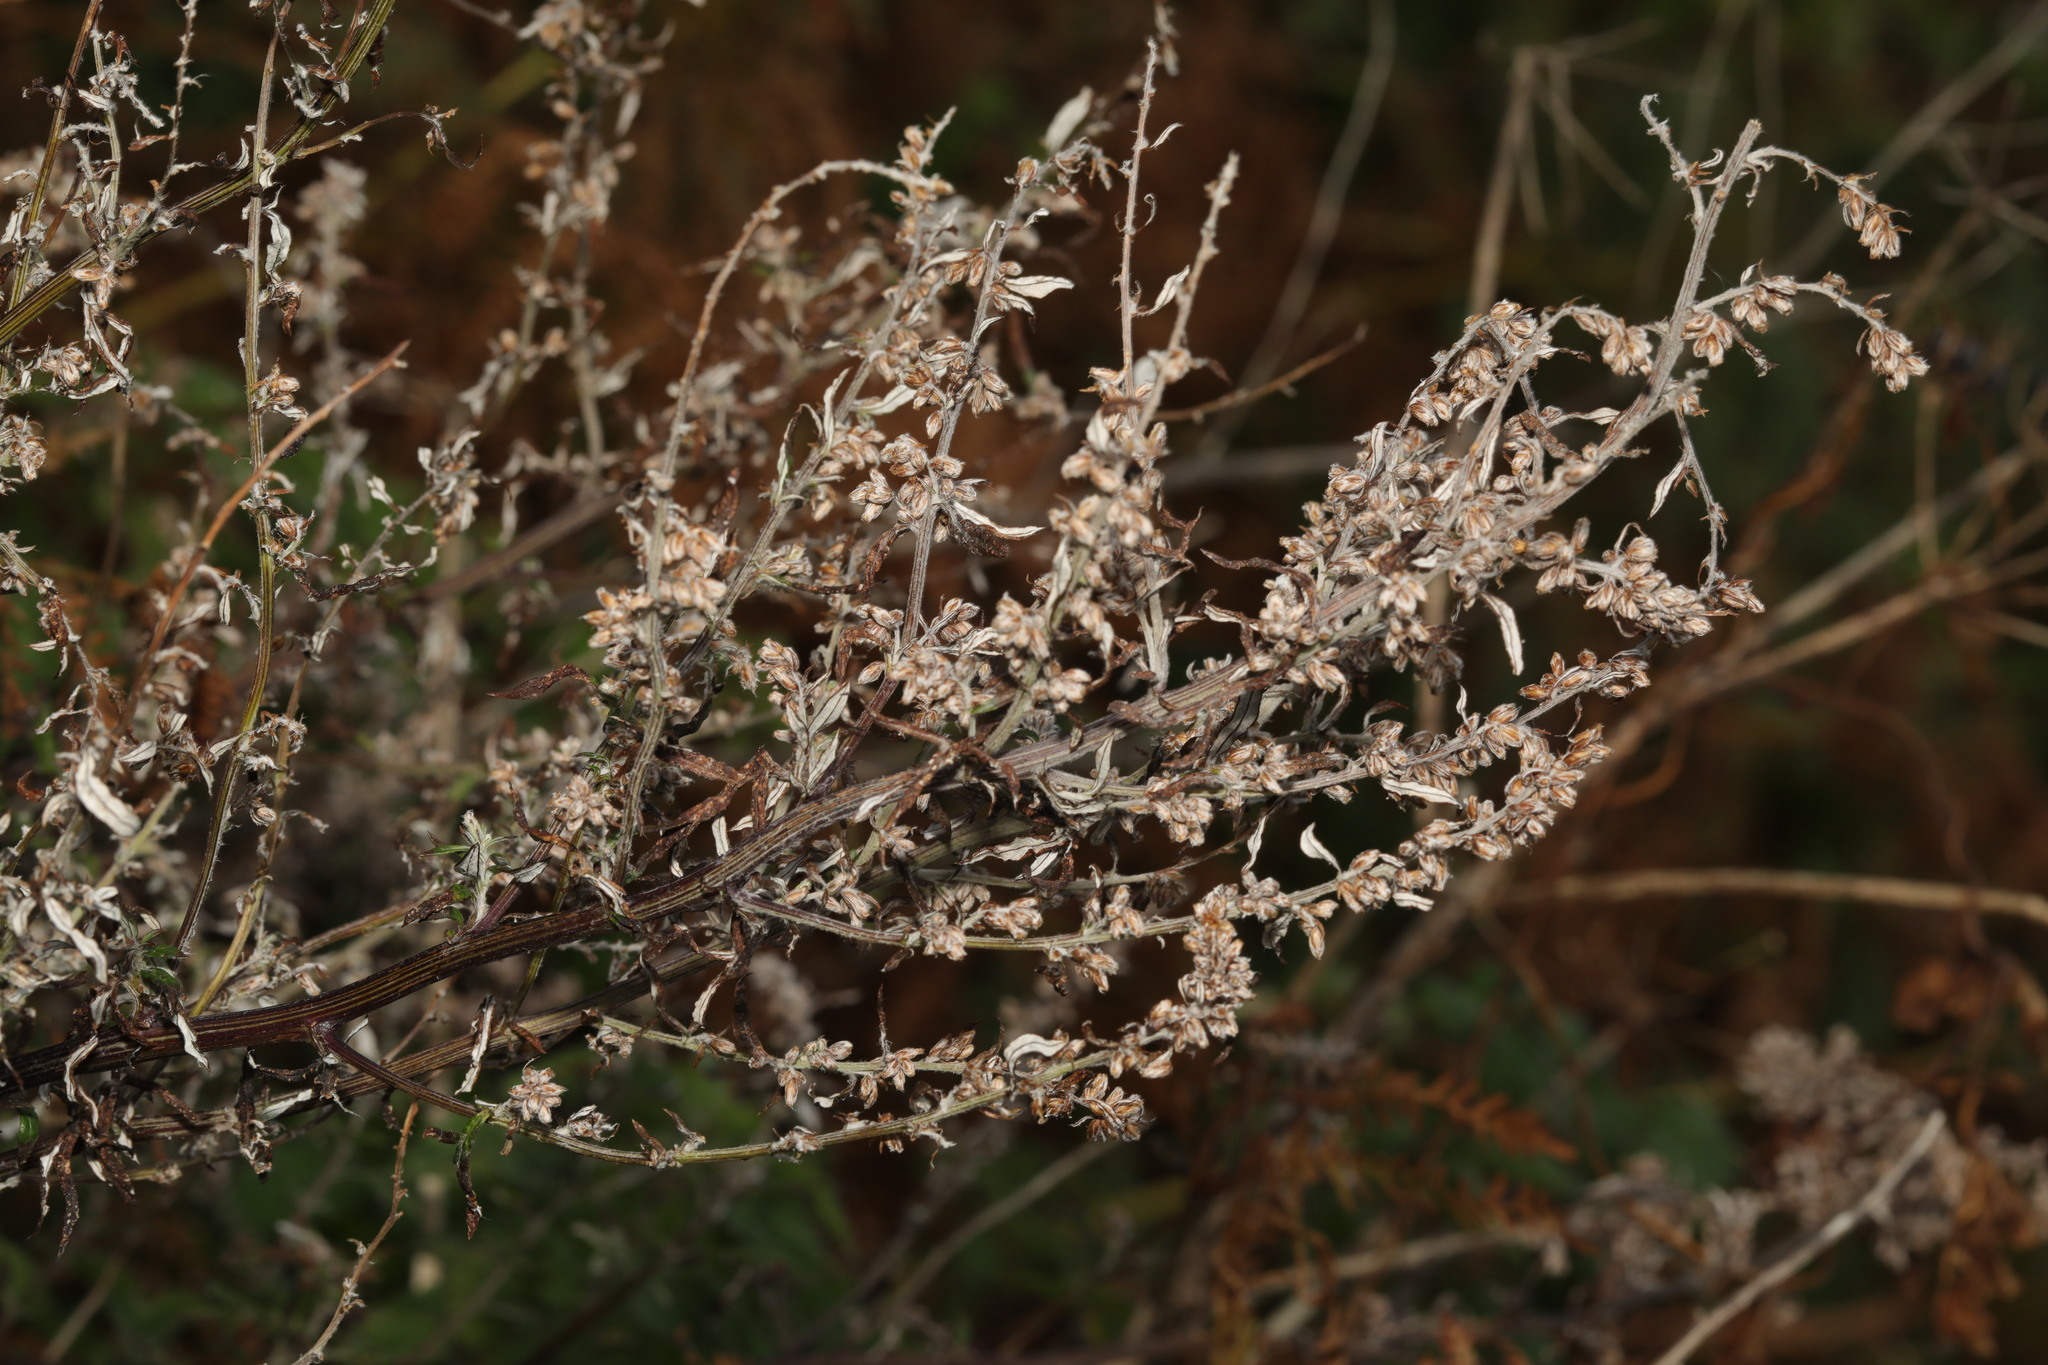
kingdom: Plantae
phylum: Tracheophyta
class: Magnoliopsida
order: Asterales
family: Asteraceae
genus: Artemisia
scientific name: Artemisia vulgaris
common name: Mugwort
